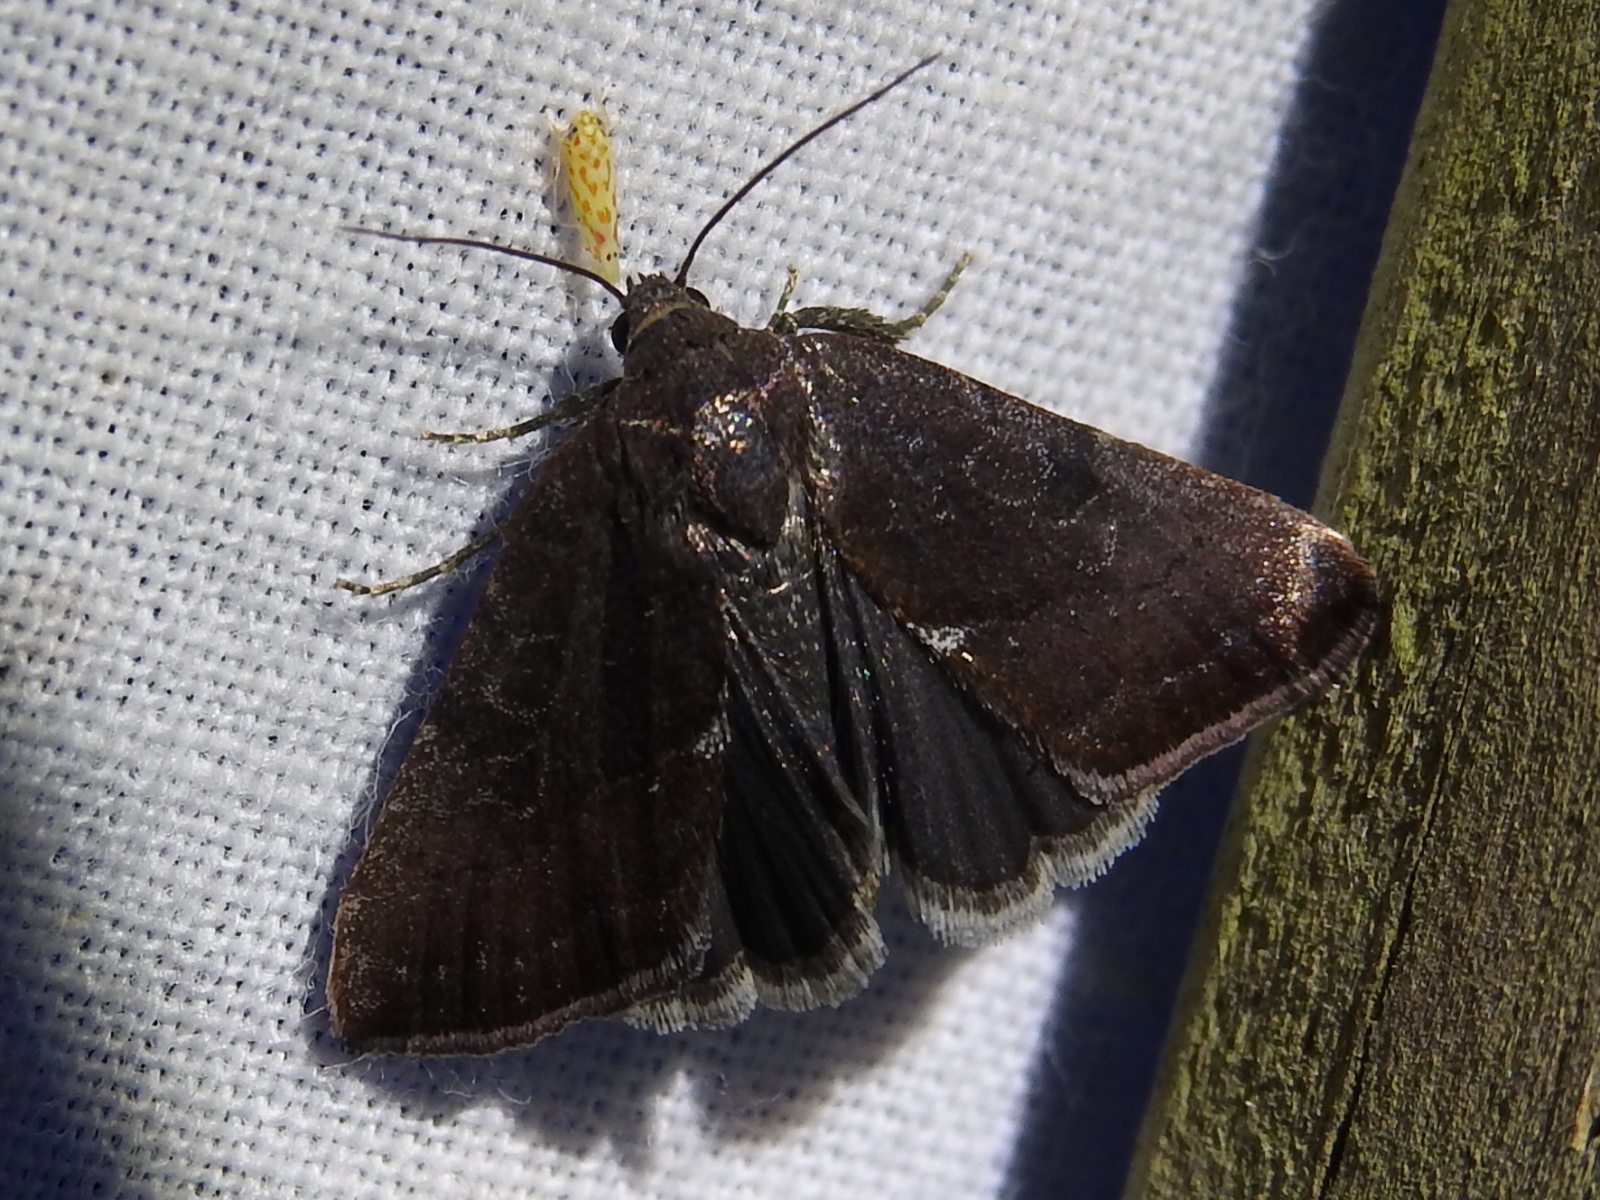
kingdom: Animalia
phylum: Arthropoda
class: Insecta
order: Lepidoptera
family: Noctuidae
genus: Galgula
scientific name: Galgula partita
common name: Wedgeling
